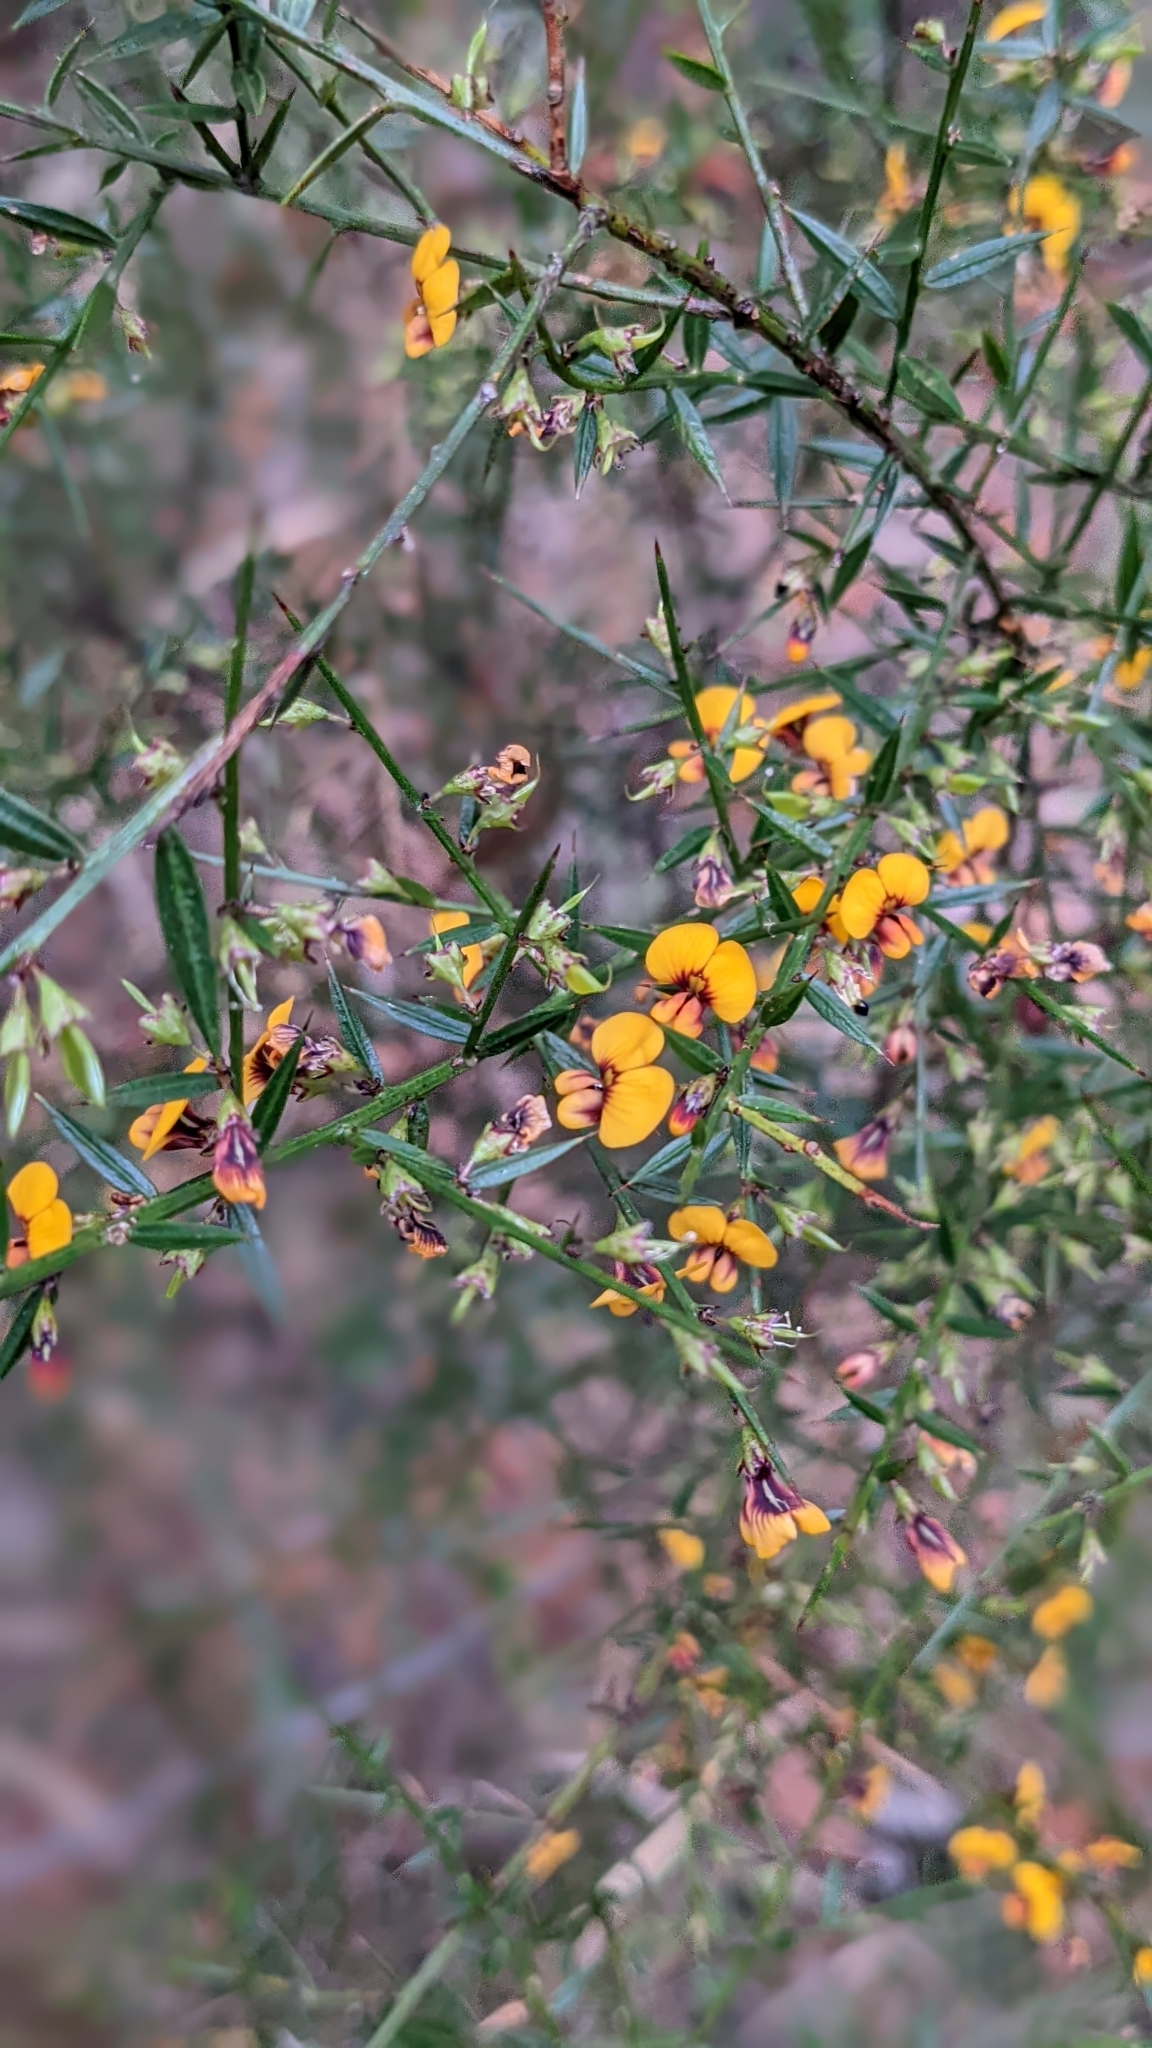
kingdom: Plantae
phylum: Tracheophyta
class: Magnoliopsida
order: Fabales
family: Fabaceae
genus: Daviesia
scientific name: Daviesia ulicifolia
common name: Gorse bitter-pea
